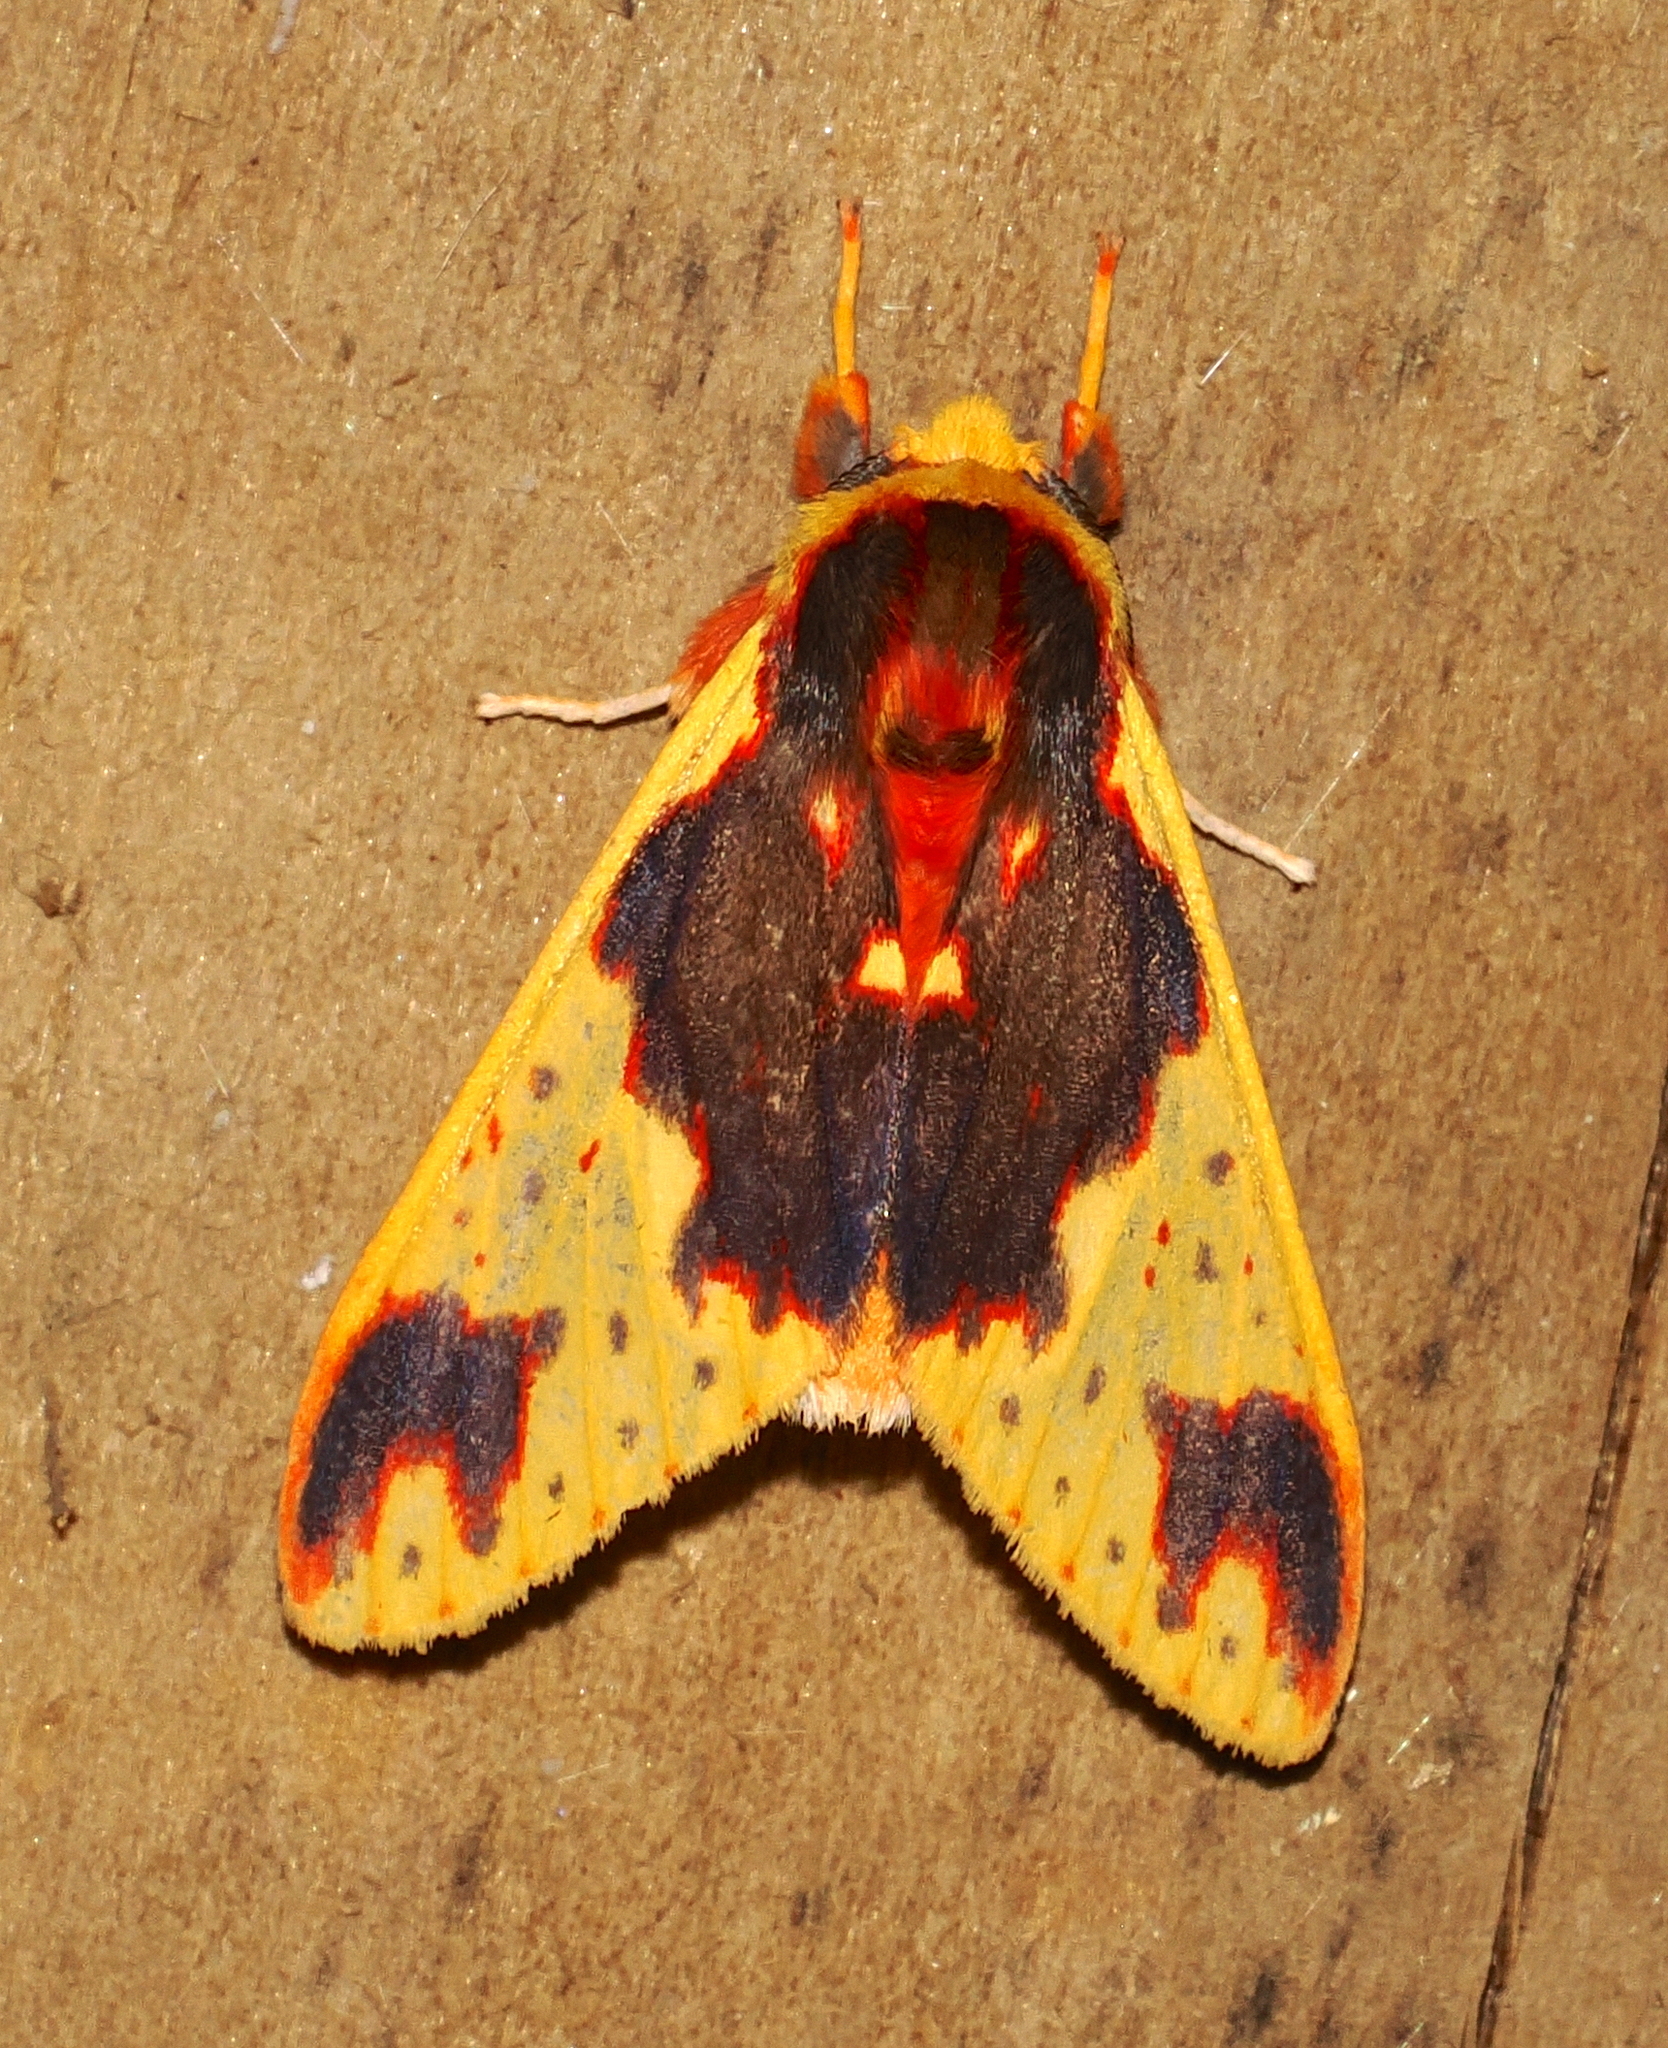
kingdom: Animalia
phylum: Arthropoda
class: Insecta
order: Lepidoptera
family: Erebidae
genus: Symphlebia
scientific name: Symphlebia palmeri
